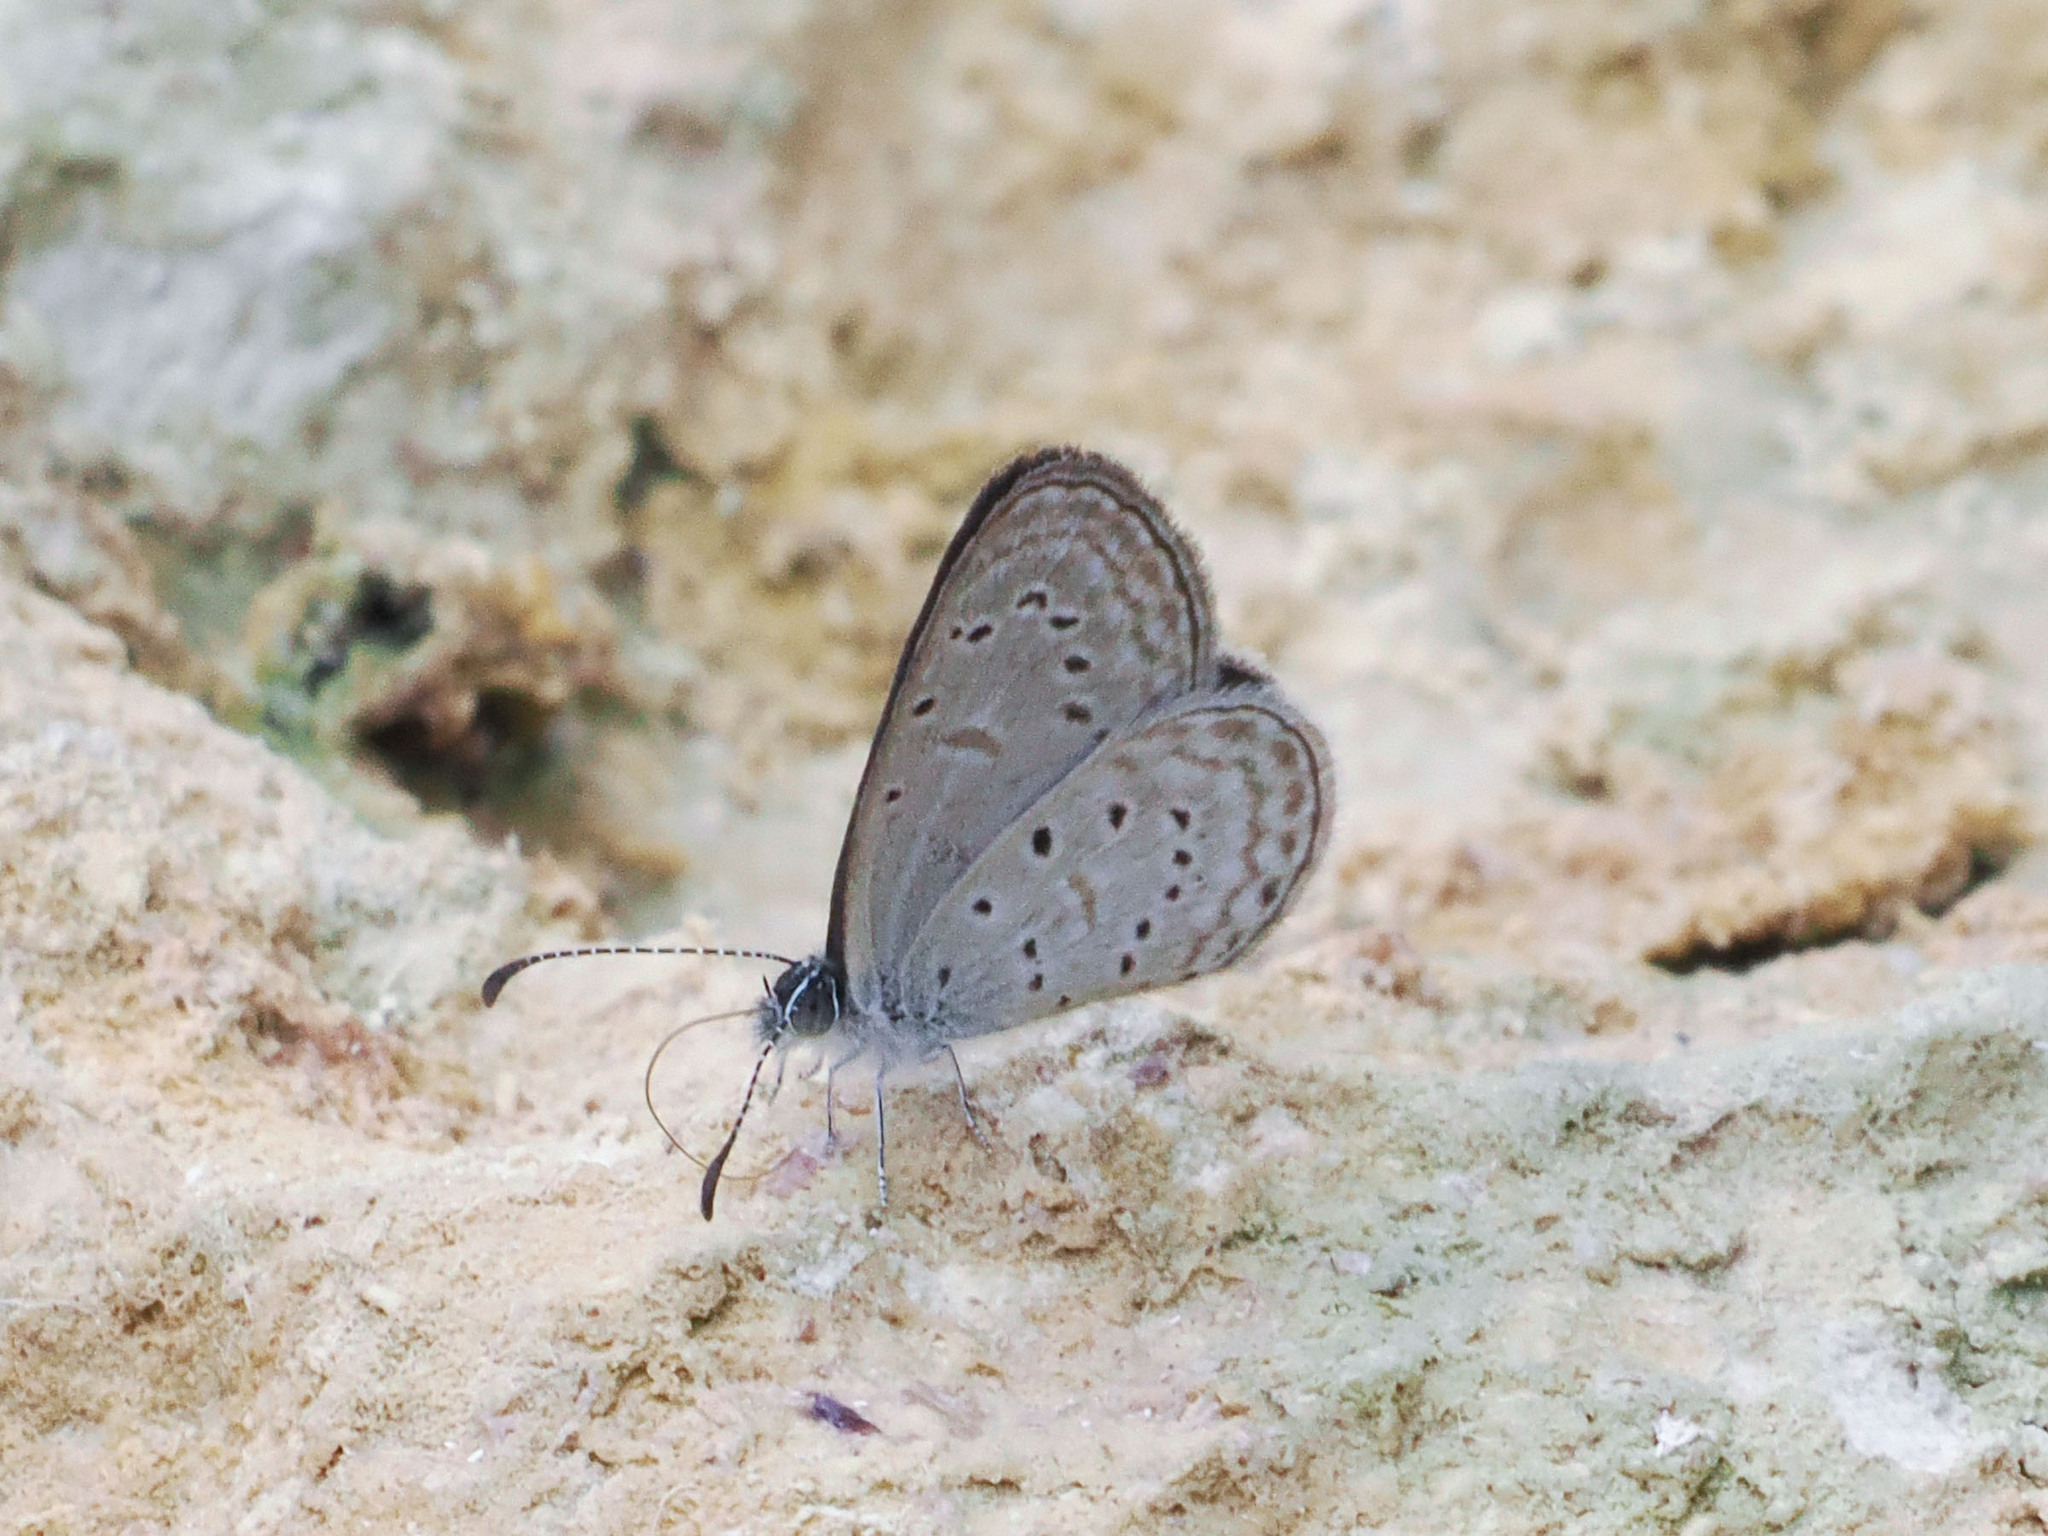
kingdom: Animalia
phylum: Arthropoda
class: Insecta
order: Lepidoptera
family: Lycaenidae
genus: Zizula
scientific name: Zizula hylax
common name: Gaika blue
